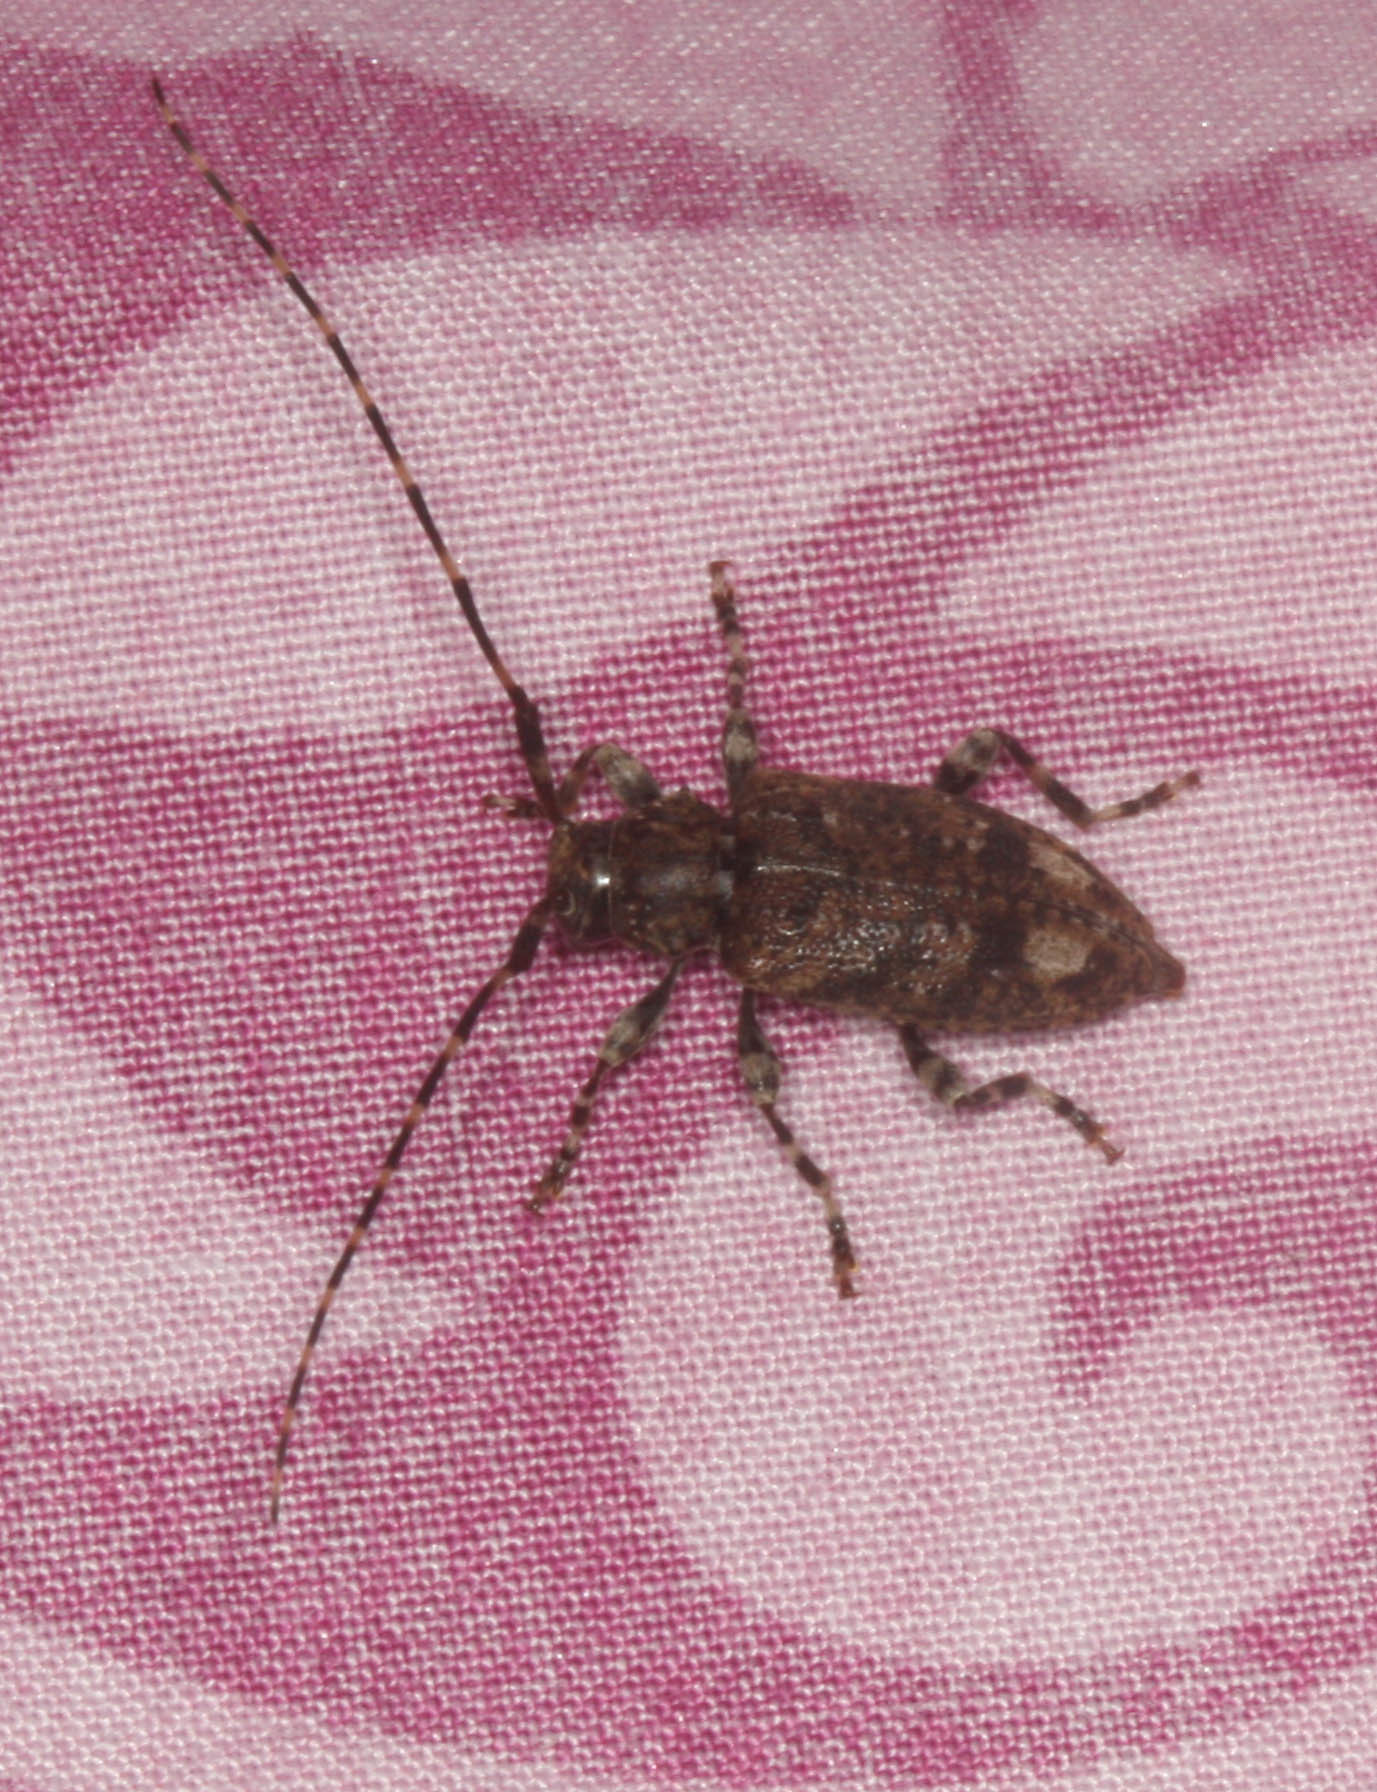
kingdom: Animalia
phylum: Arthropoda
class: Insecta
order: Coleoptera
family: Cerambycidae
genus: Astyleiopus
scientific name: Astyleiopus variegatus
